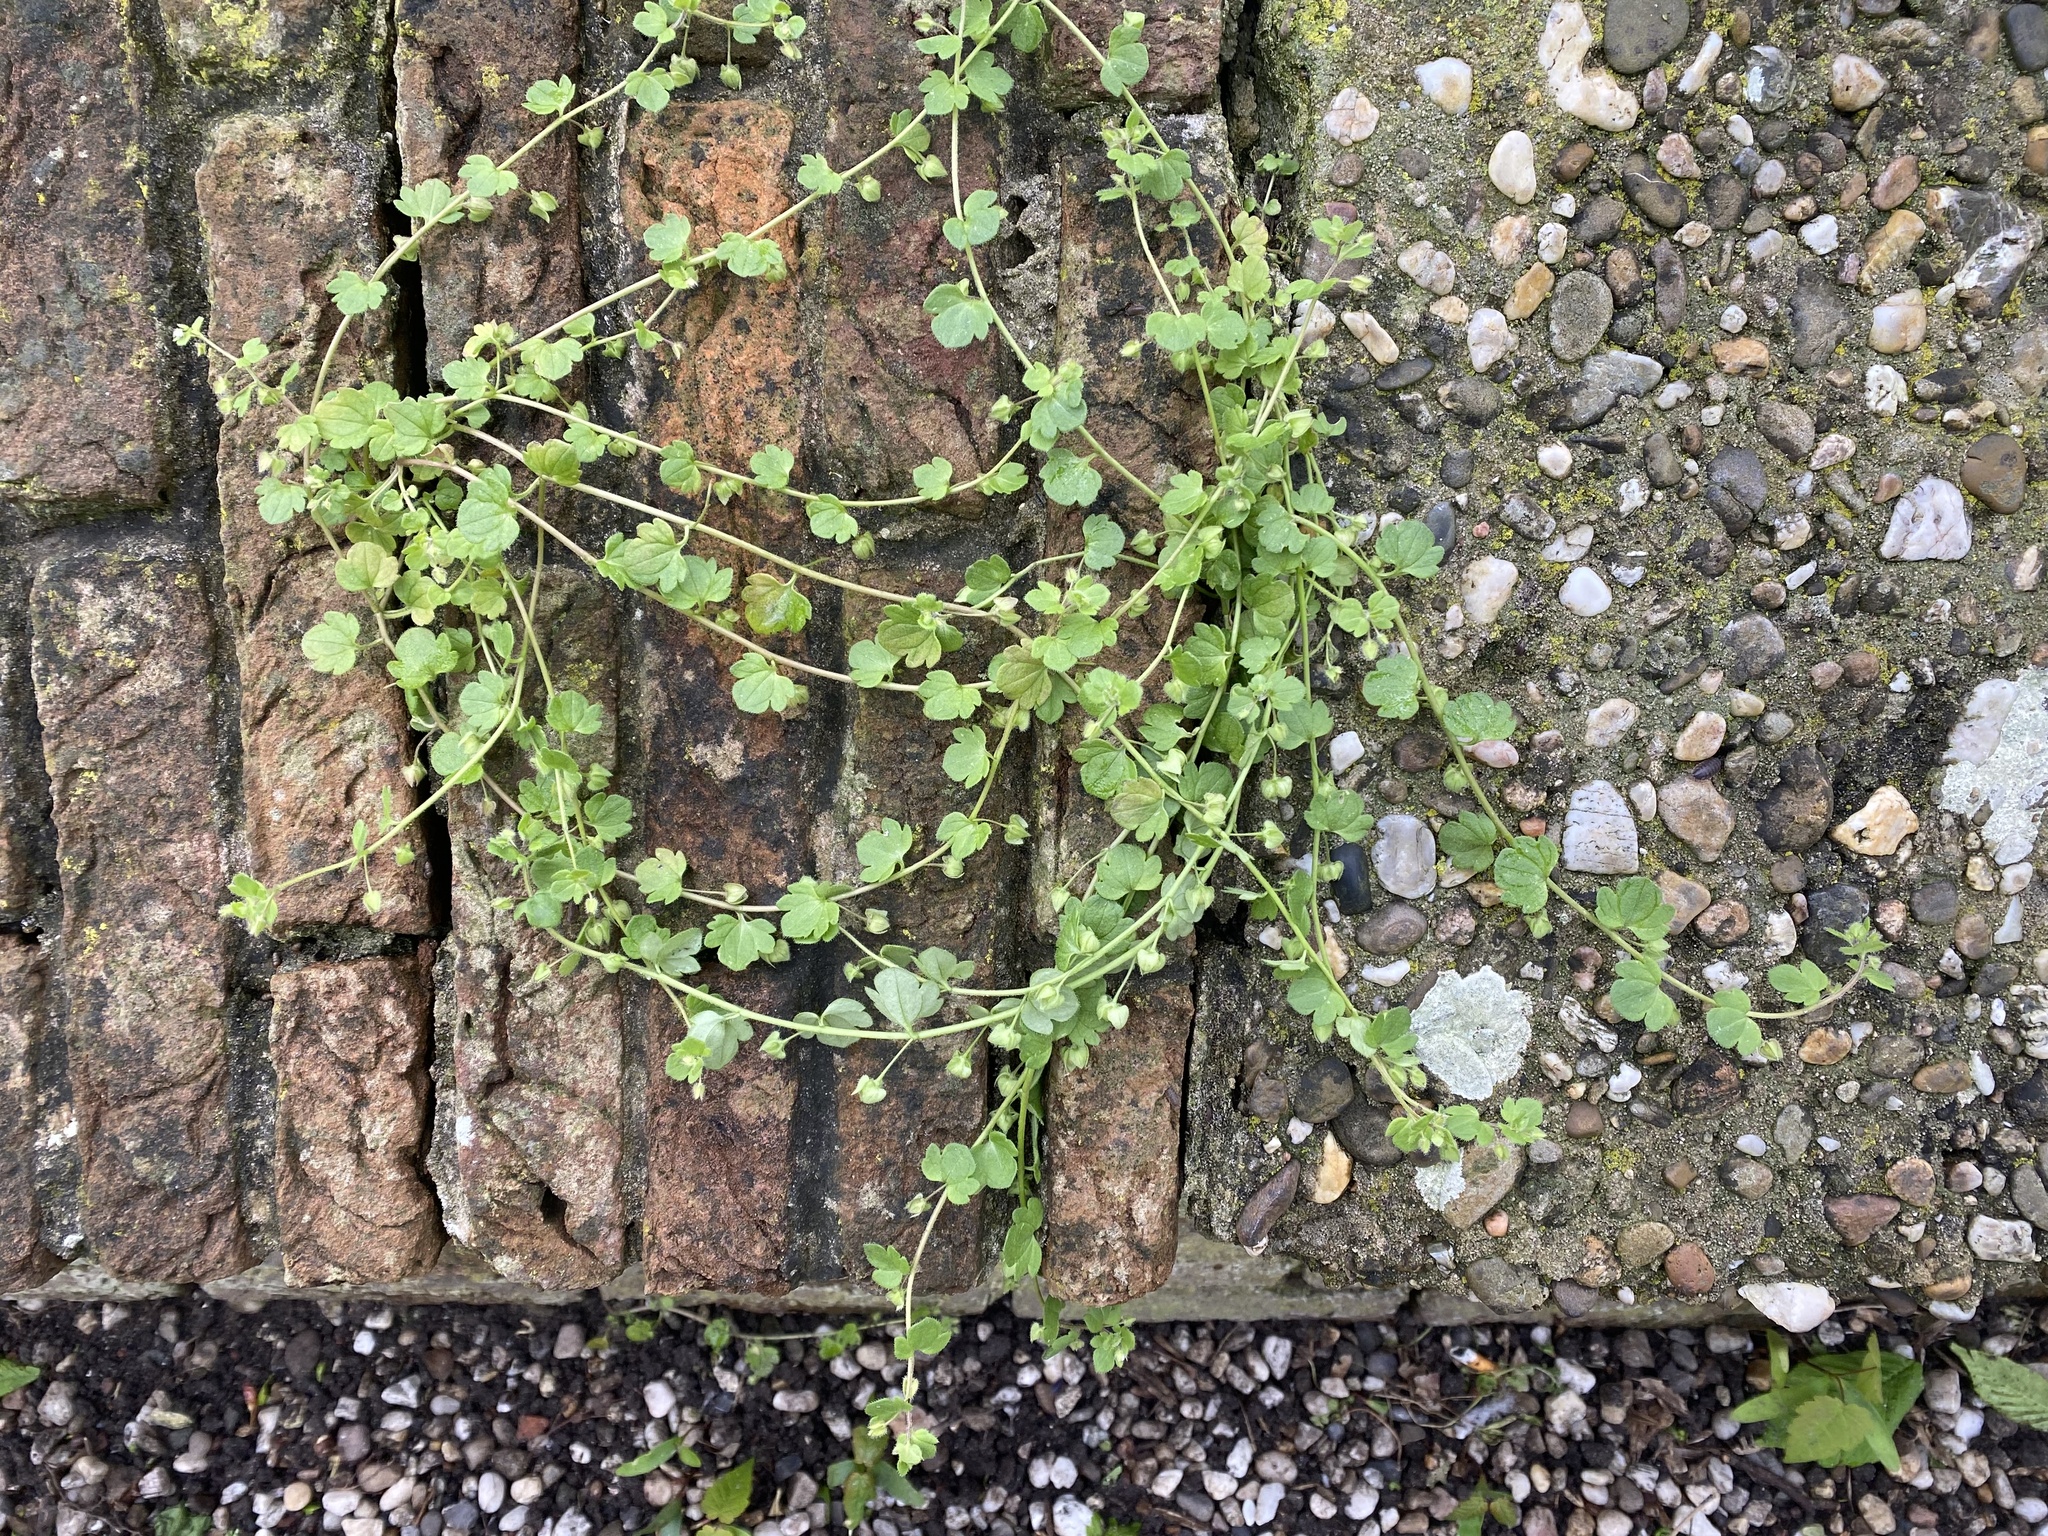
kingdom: Plantae
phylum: Tracheophyta
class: Magnoliopsida
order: Lamiales
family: Plantaginaceae
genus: Veronica
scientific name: Veronica hederifolia
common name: Ivy-leaved speedwell
